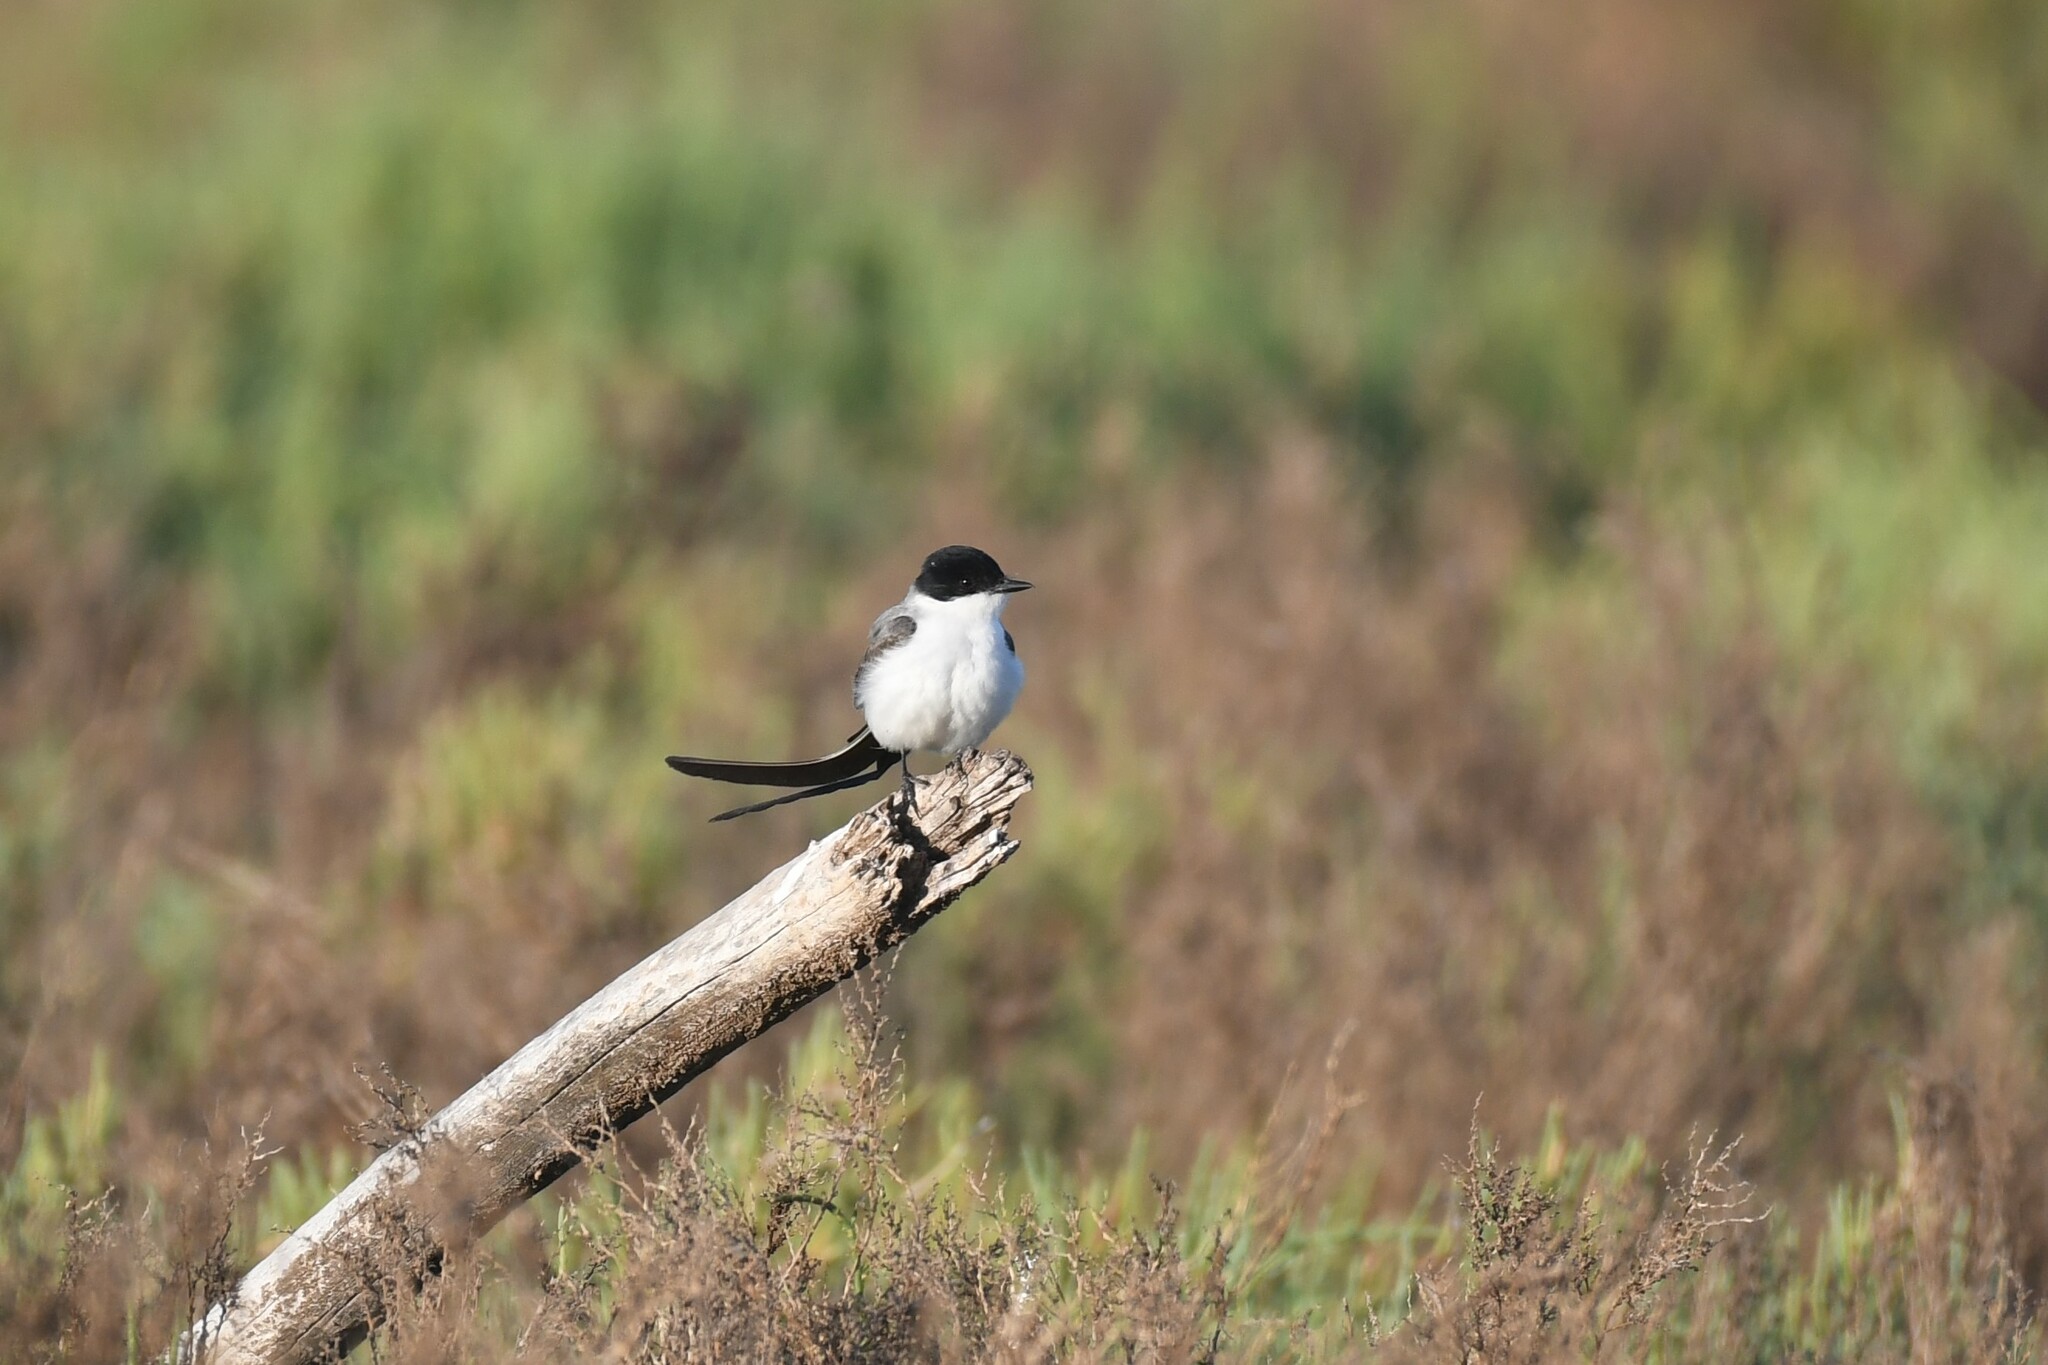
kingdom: Animalia
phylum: Chordata
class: Aves
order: Passeriformes
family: Tyrannidae
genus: Tyrannus
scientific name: Tyrannus savana
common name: Fork-tailed flycatcher
